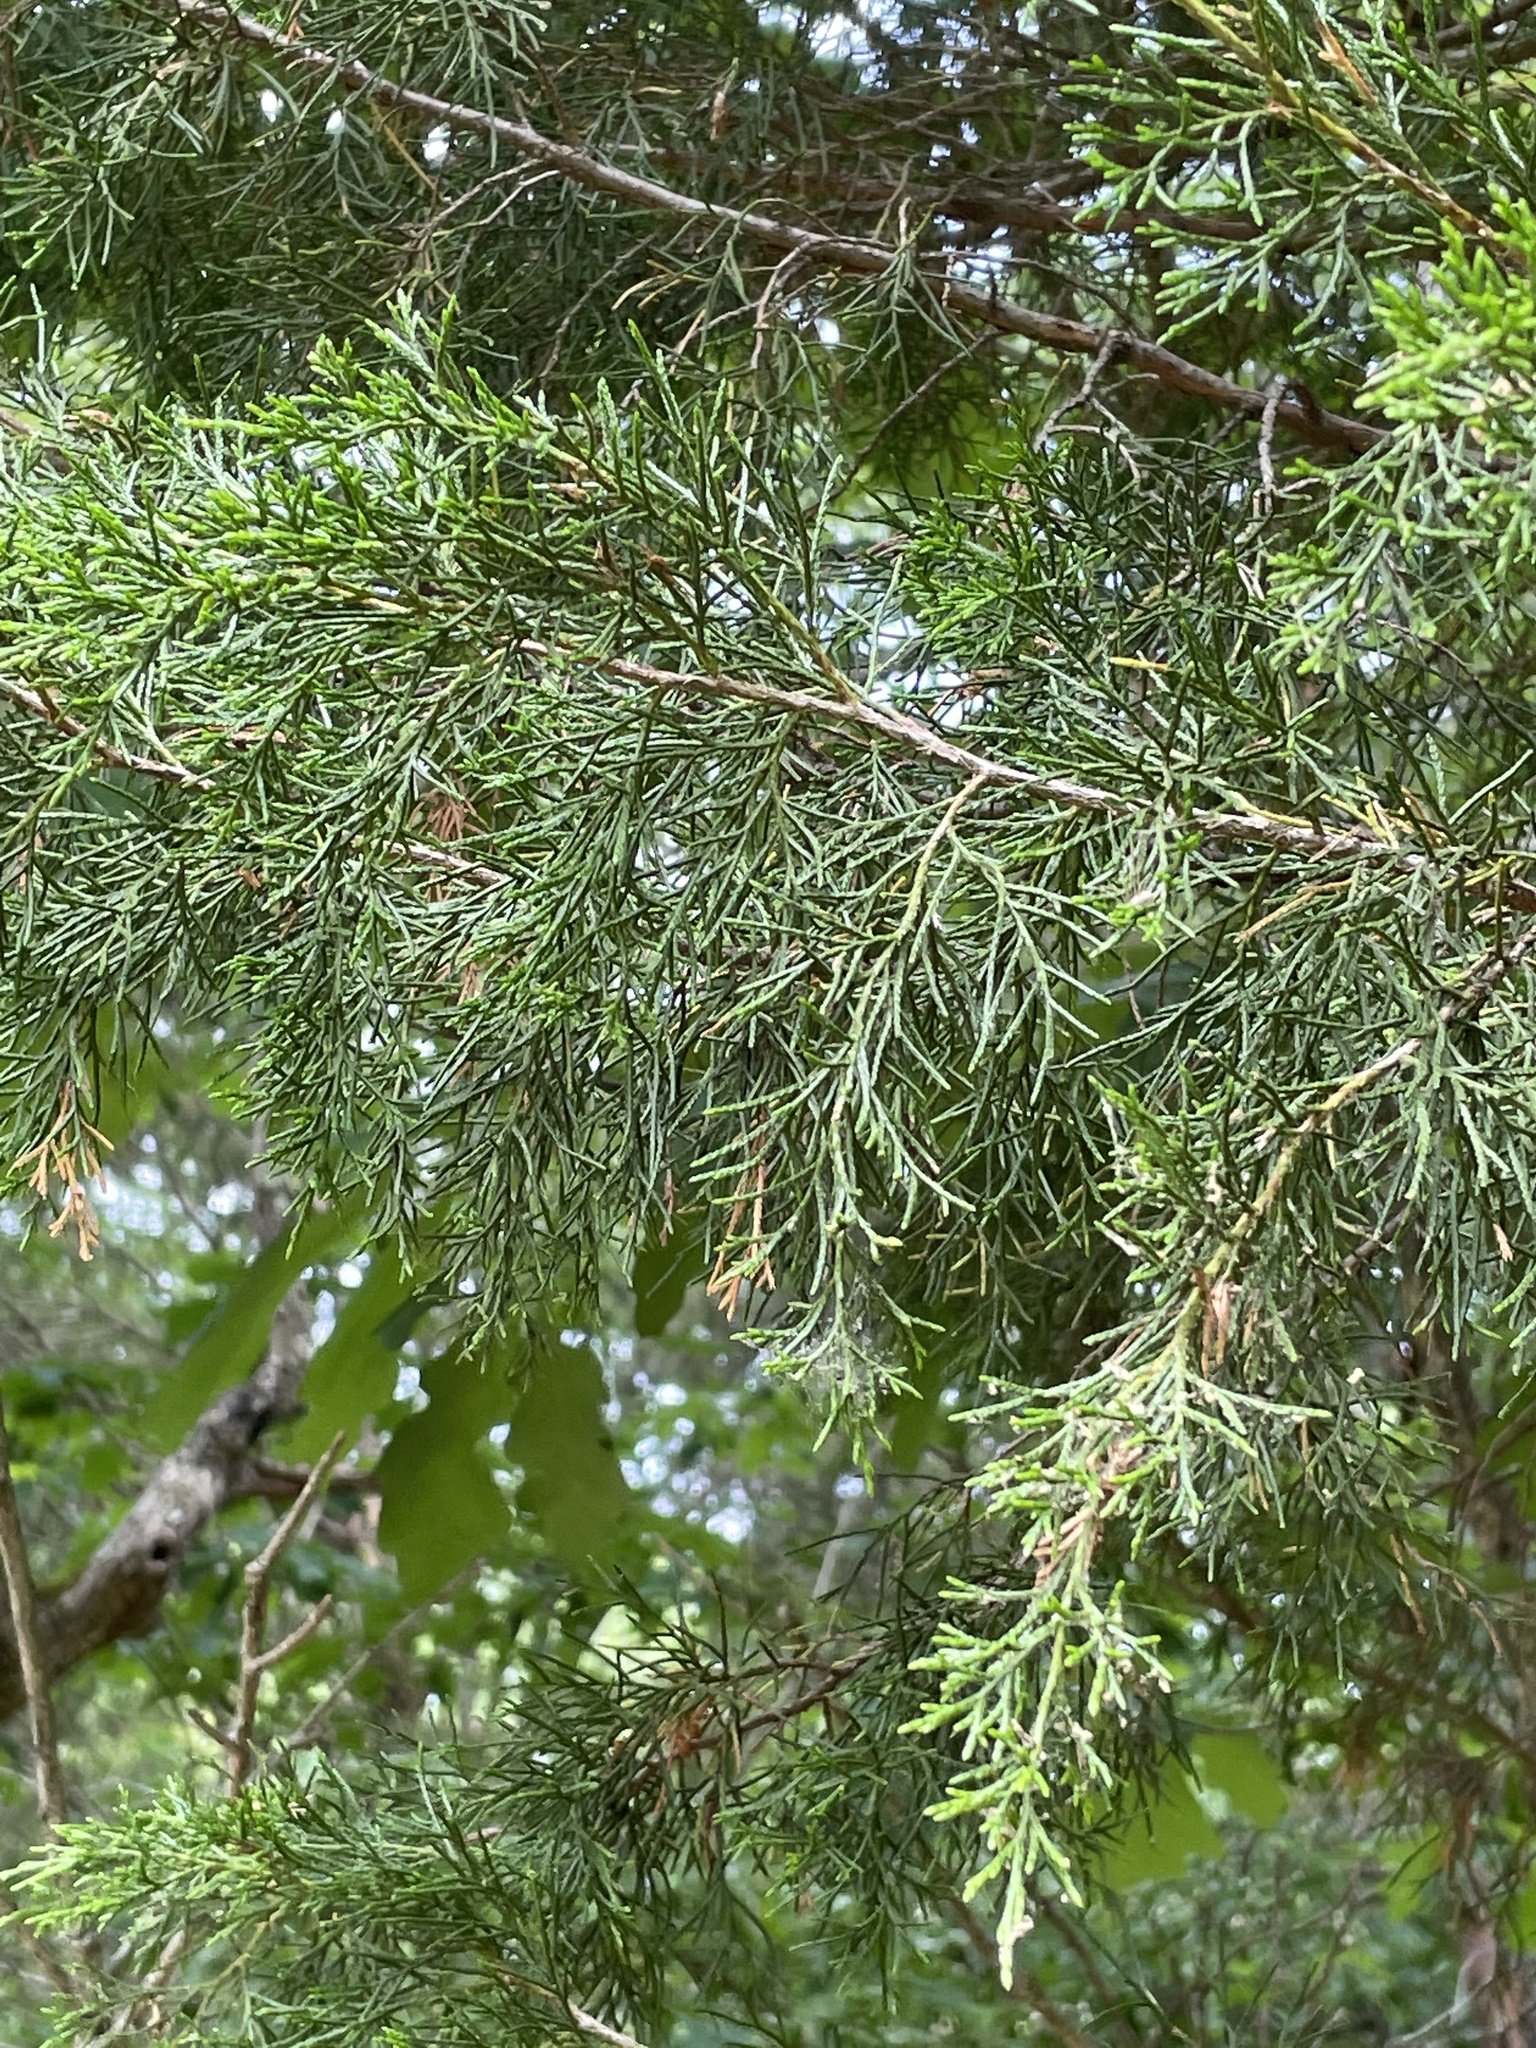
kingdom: Plantae
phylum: Tracheophyta
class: Pinopsida
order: Pinales
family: Cupressaceae
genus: Juniperus
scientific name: Juniperus virginiana
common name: Red juniper
